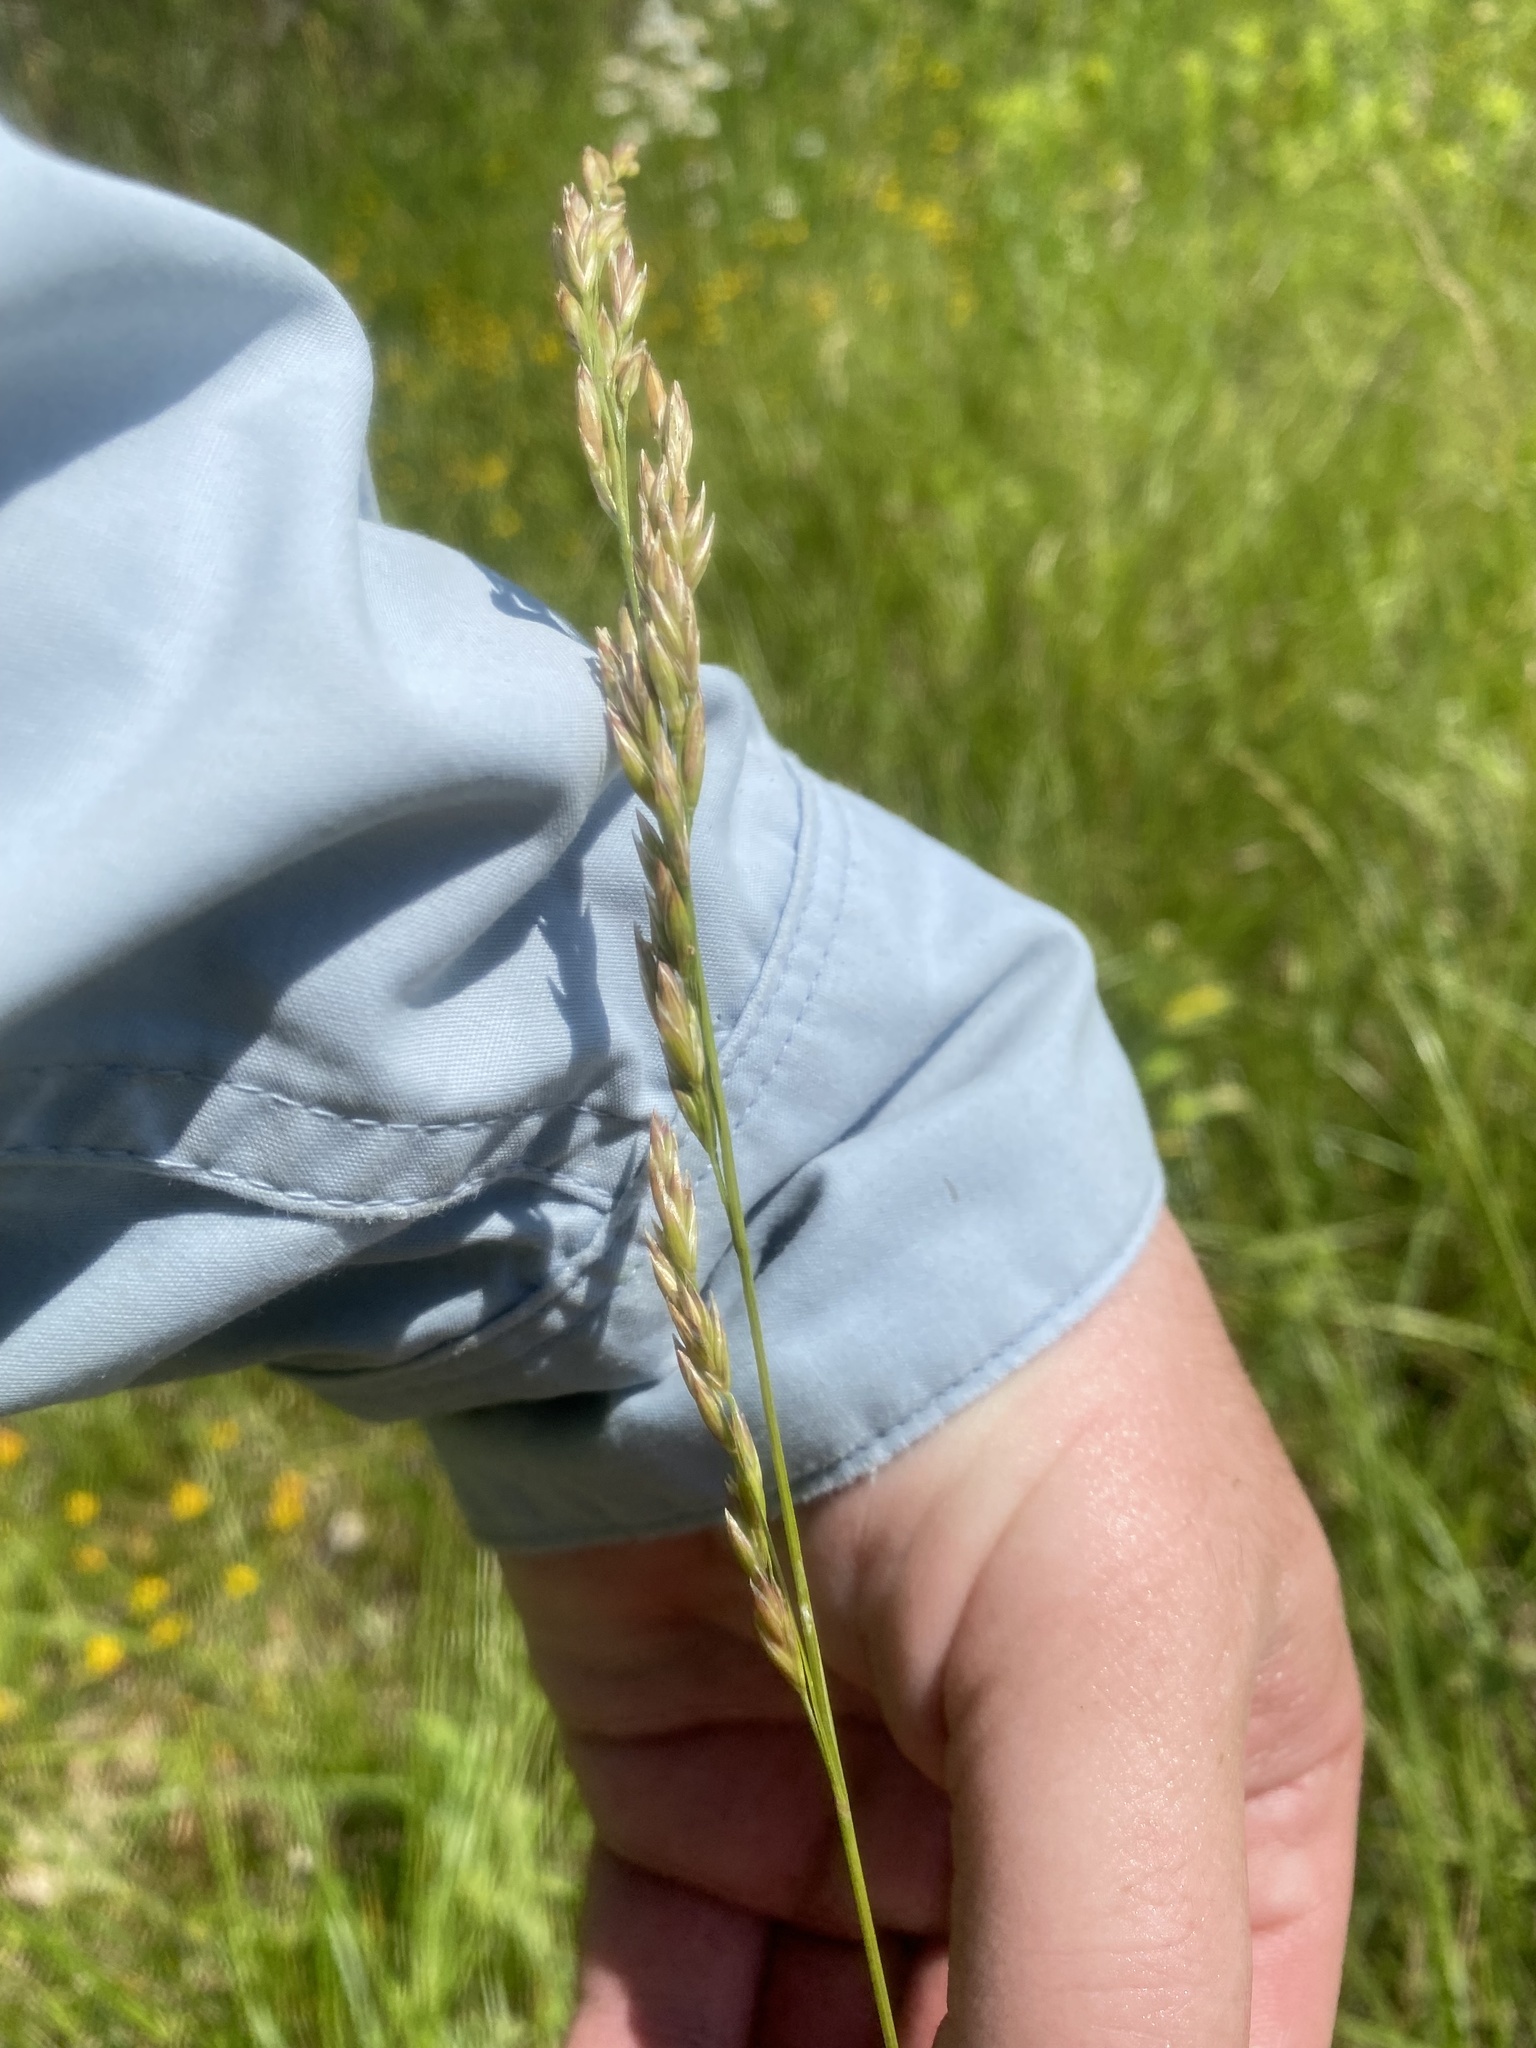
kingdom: Plantae
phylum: Tracheophyta
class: Liliopsida
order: Poales
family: Poaceae
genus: Dactylis
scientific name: Dactylis glomerata
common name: Orchardgrass
